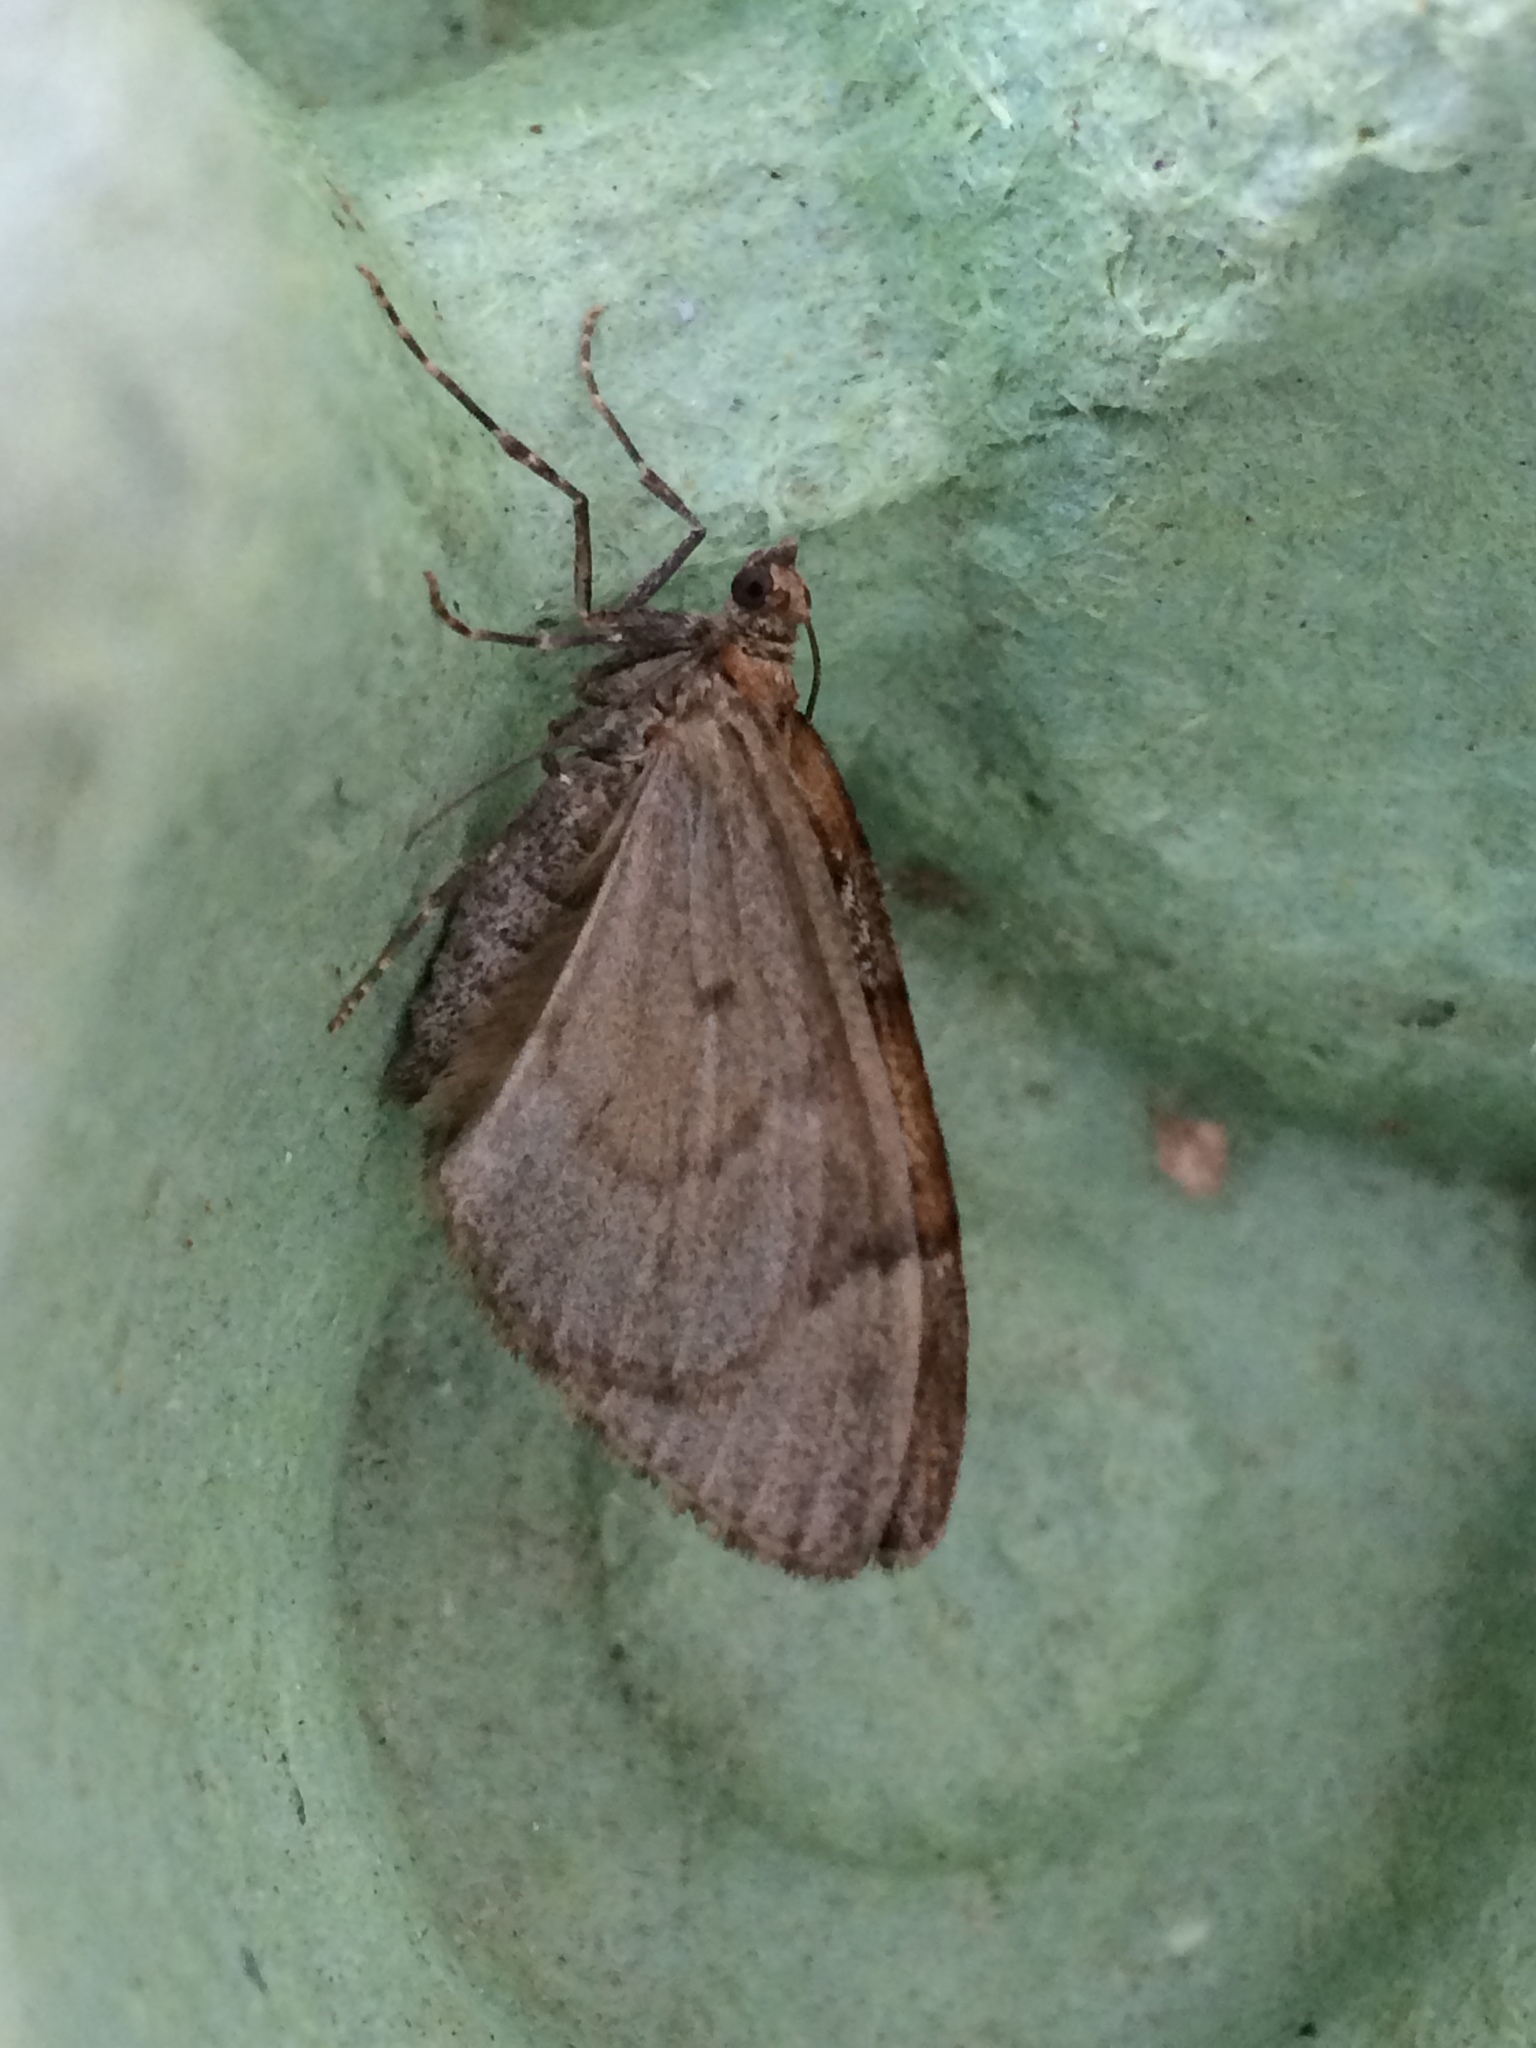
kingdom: Animalia
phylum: Arthropoda
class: Insecta
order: Lepidoptera
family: Geometridae
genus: Thera
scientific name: Thera obeliscata
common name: Grey pine carpet
